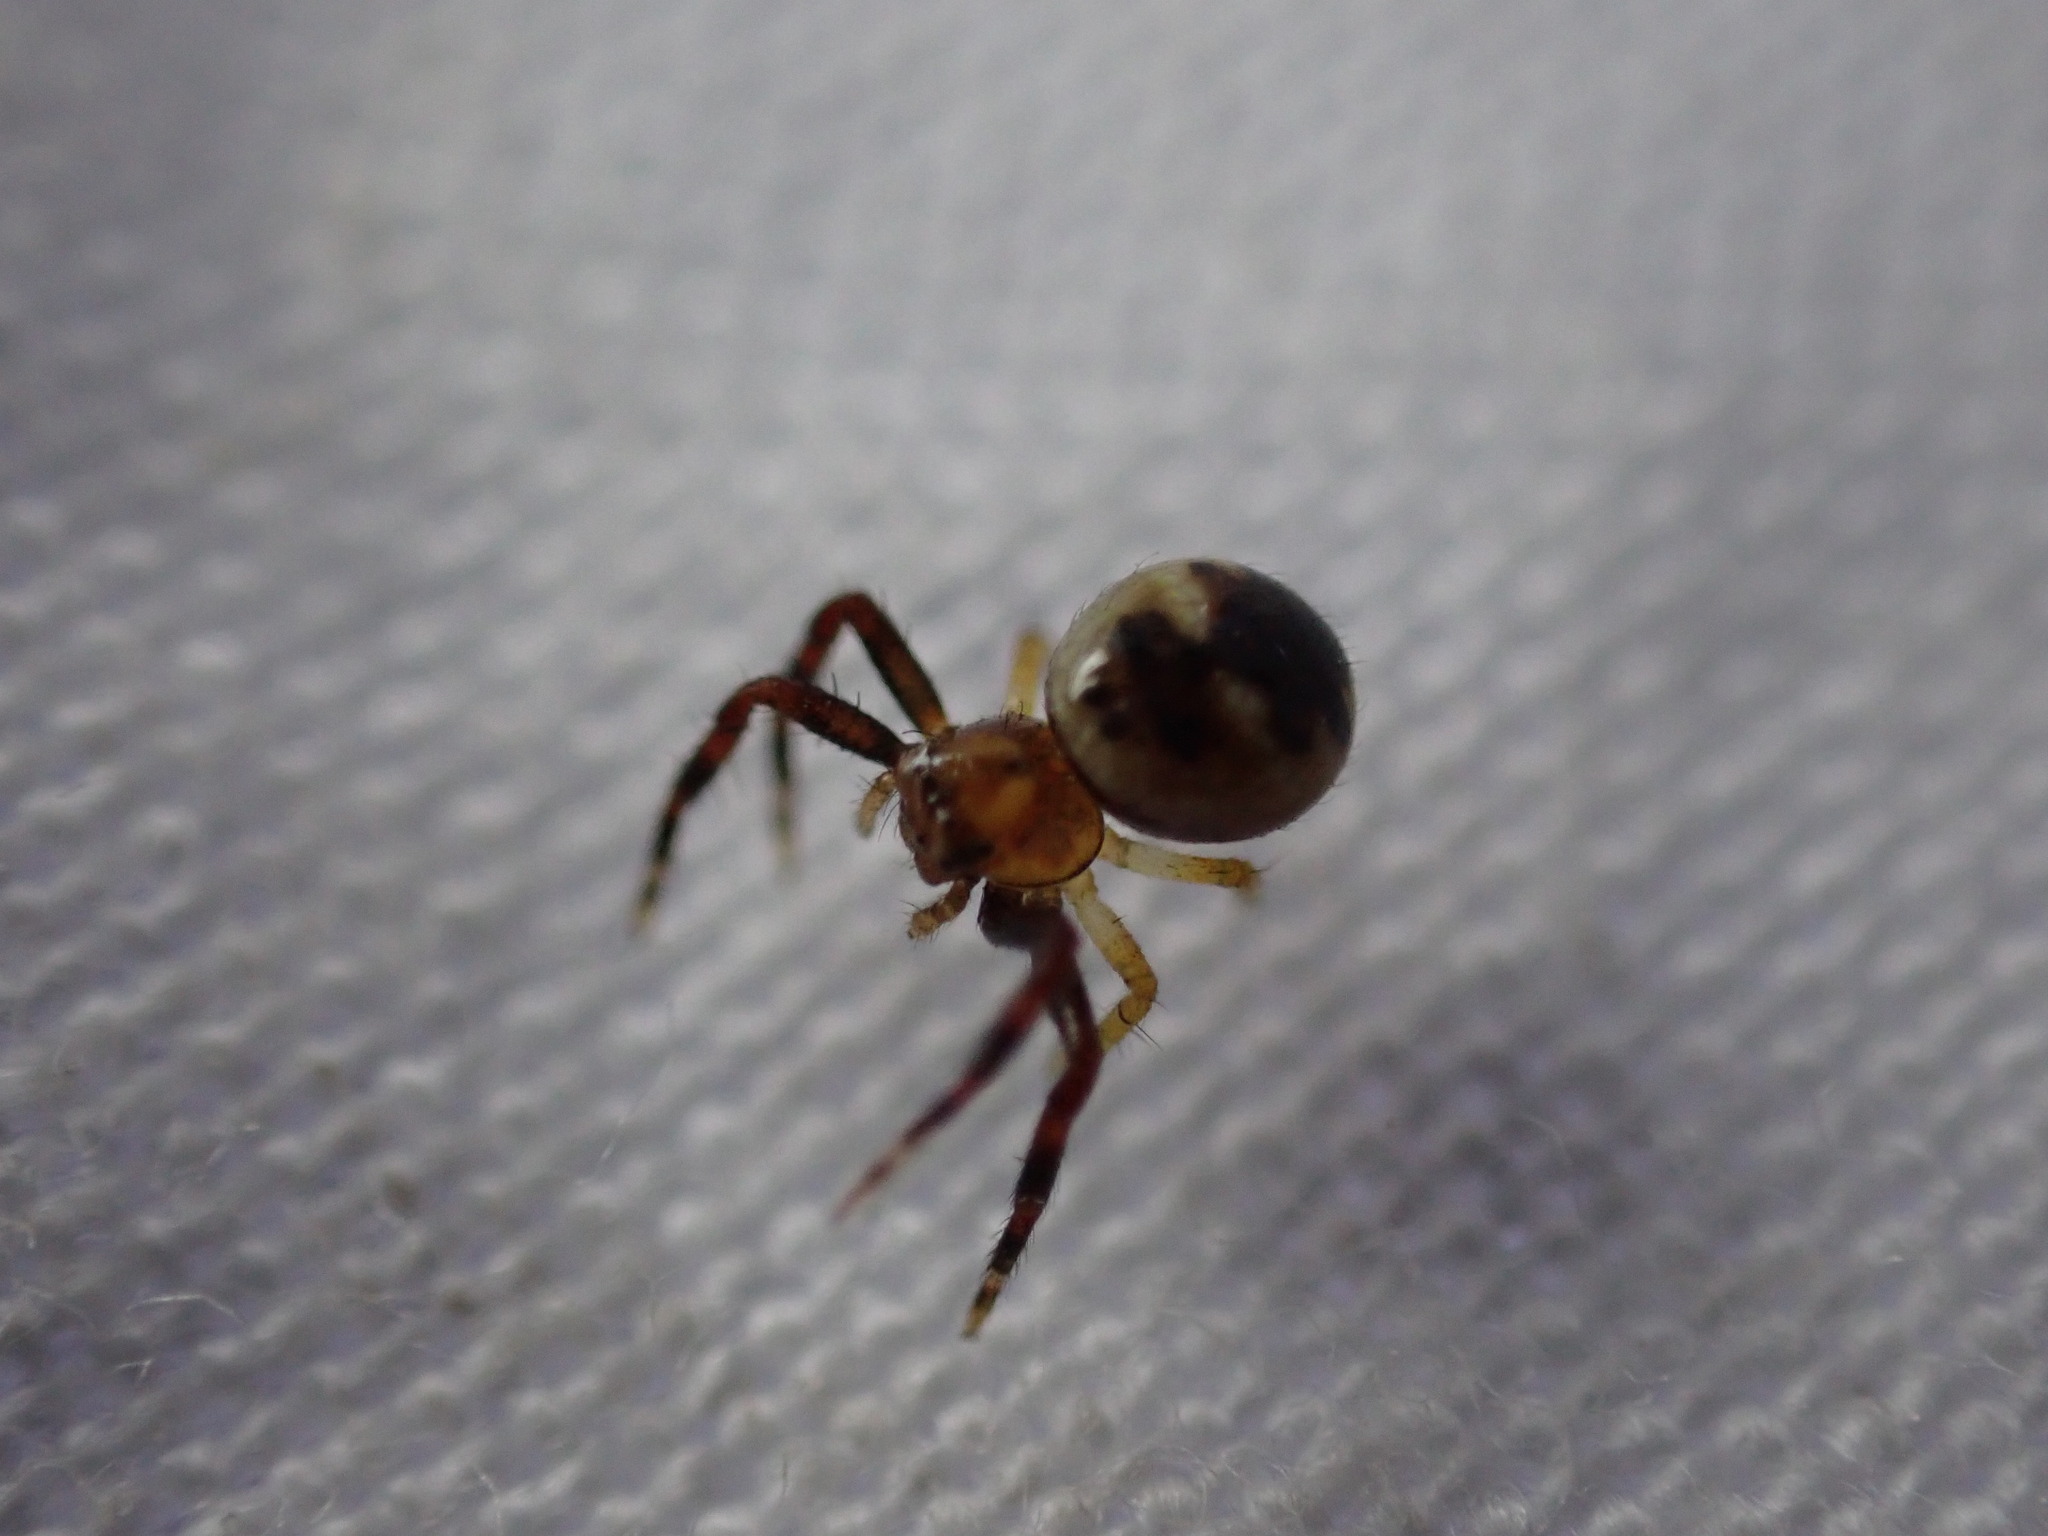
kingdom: Animalia
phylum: Arthropoda
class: Arachnida
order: Araneae
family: Thomisidae
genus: Synema
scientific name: Synema globosum
